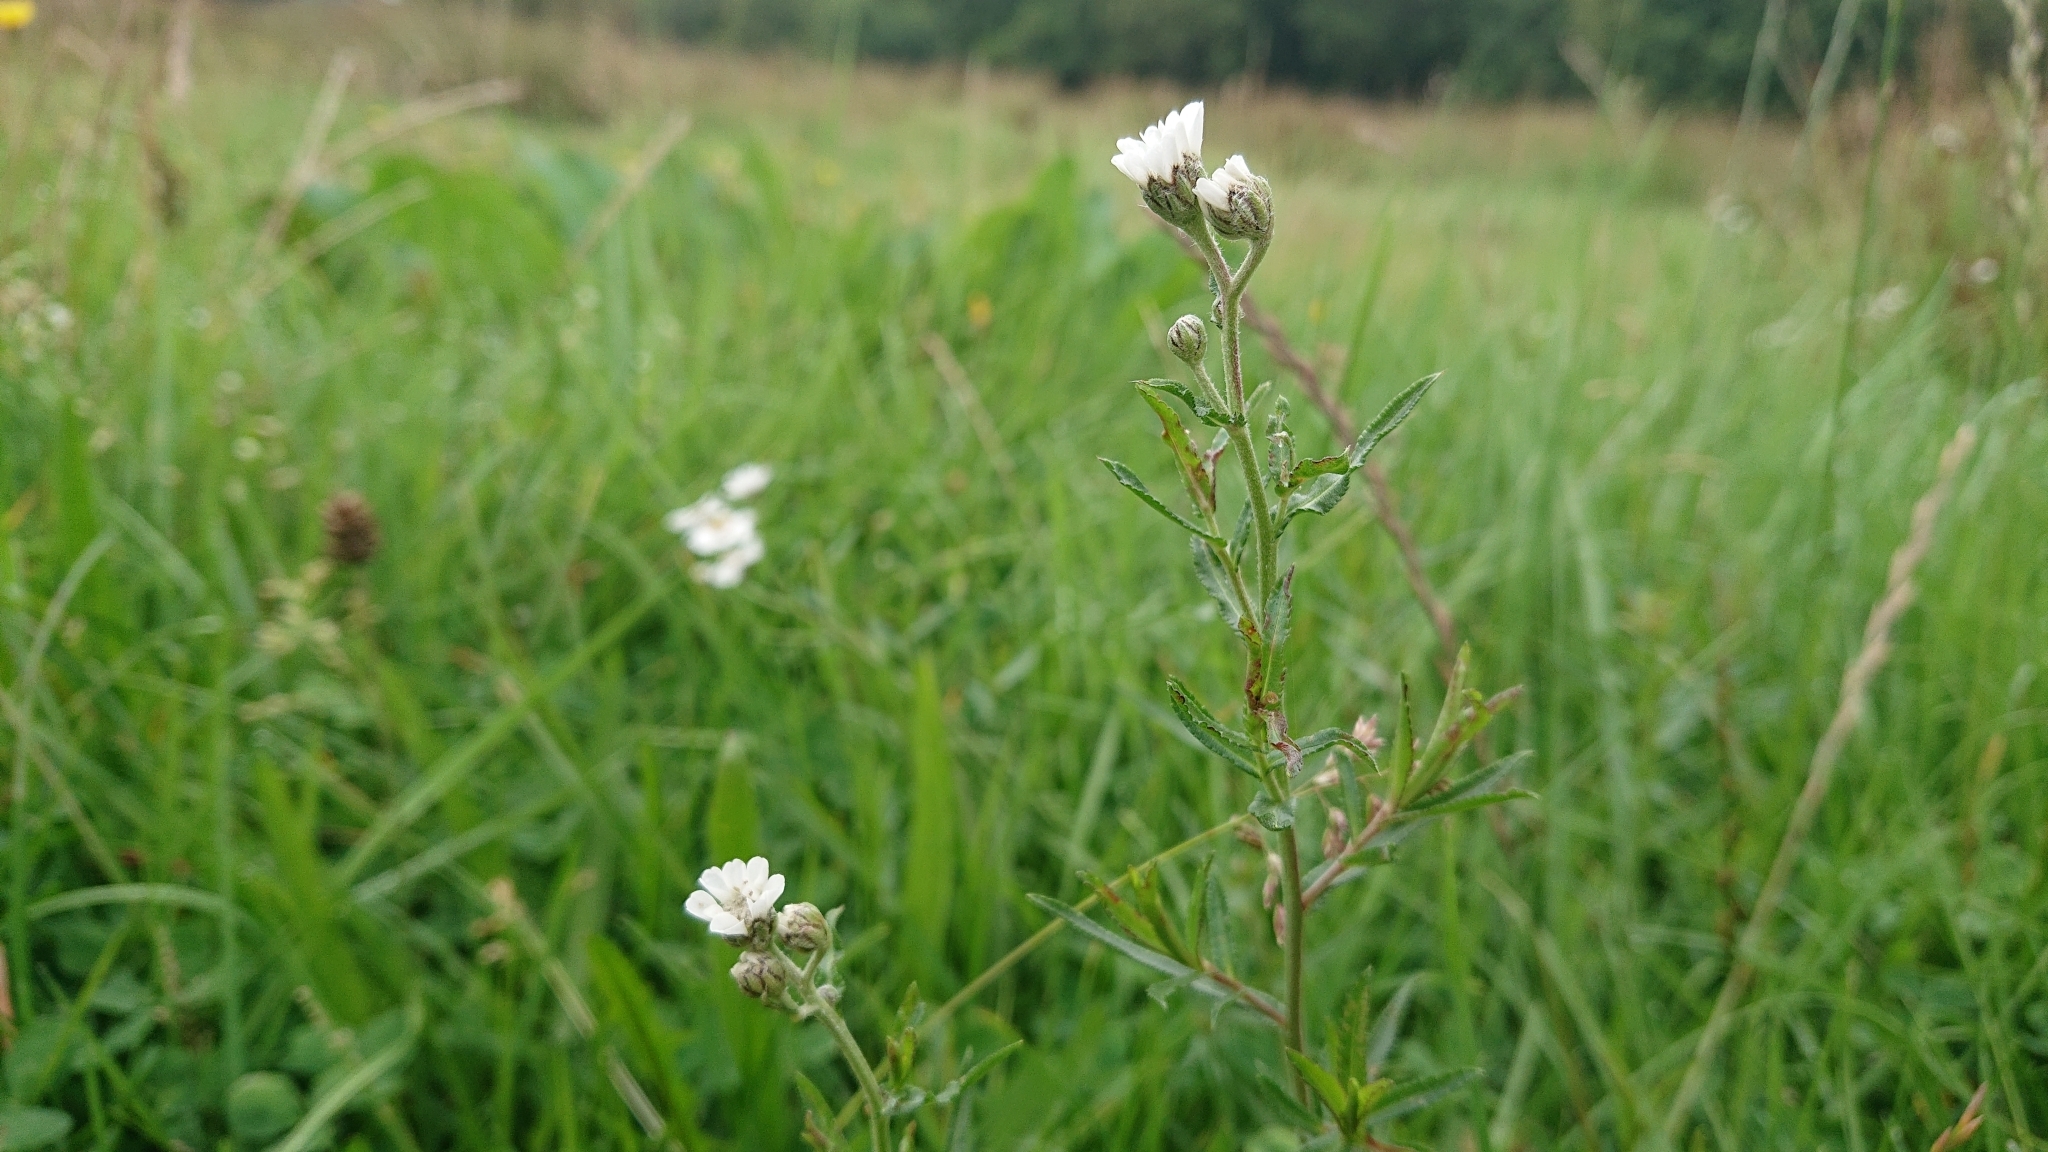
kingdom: Plantae
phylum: Tracheophyta
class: Magnoliopsida
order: Asterales
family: Asteraceae
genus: Achillea
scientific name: Achillea ptarmica
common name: Sneezeweed
